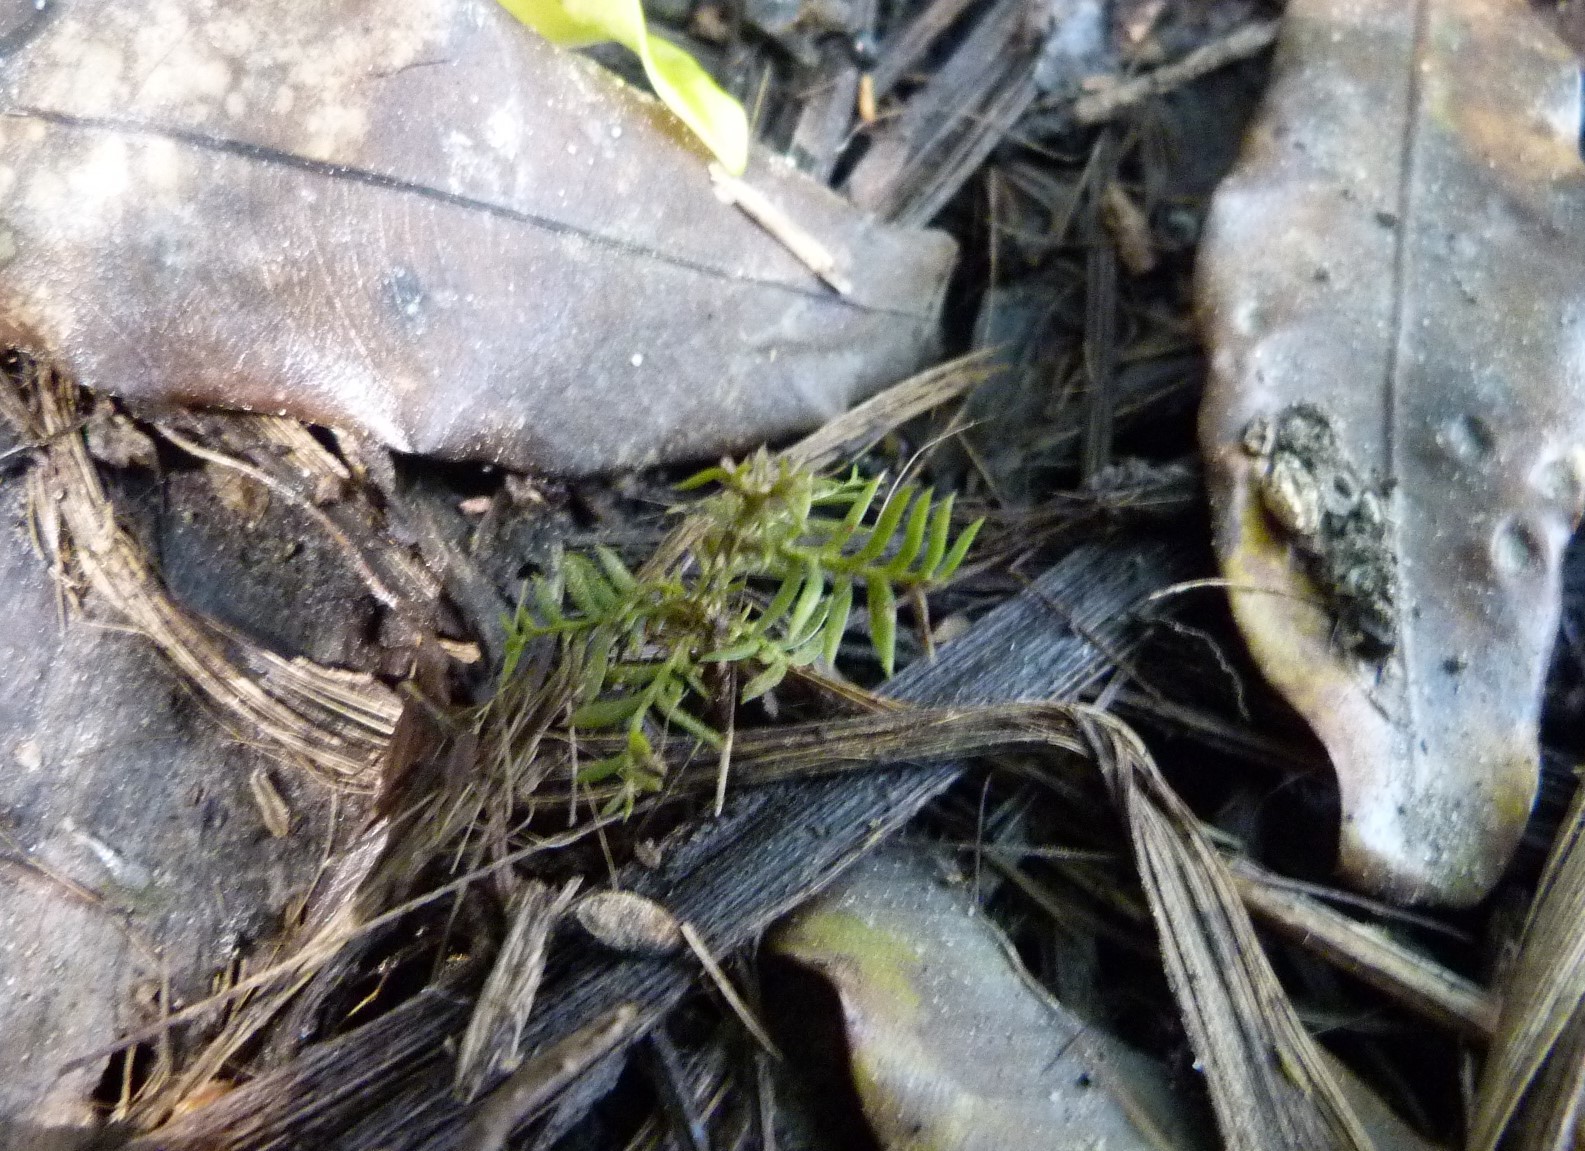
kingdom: Plantae
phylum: Tracheophyta
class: Pinopsida
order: Pinales
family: Podocarpaceae
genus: Dacrycarpus
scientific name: Dacrycarpus dacrydioides
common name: White pine
